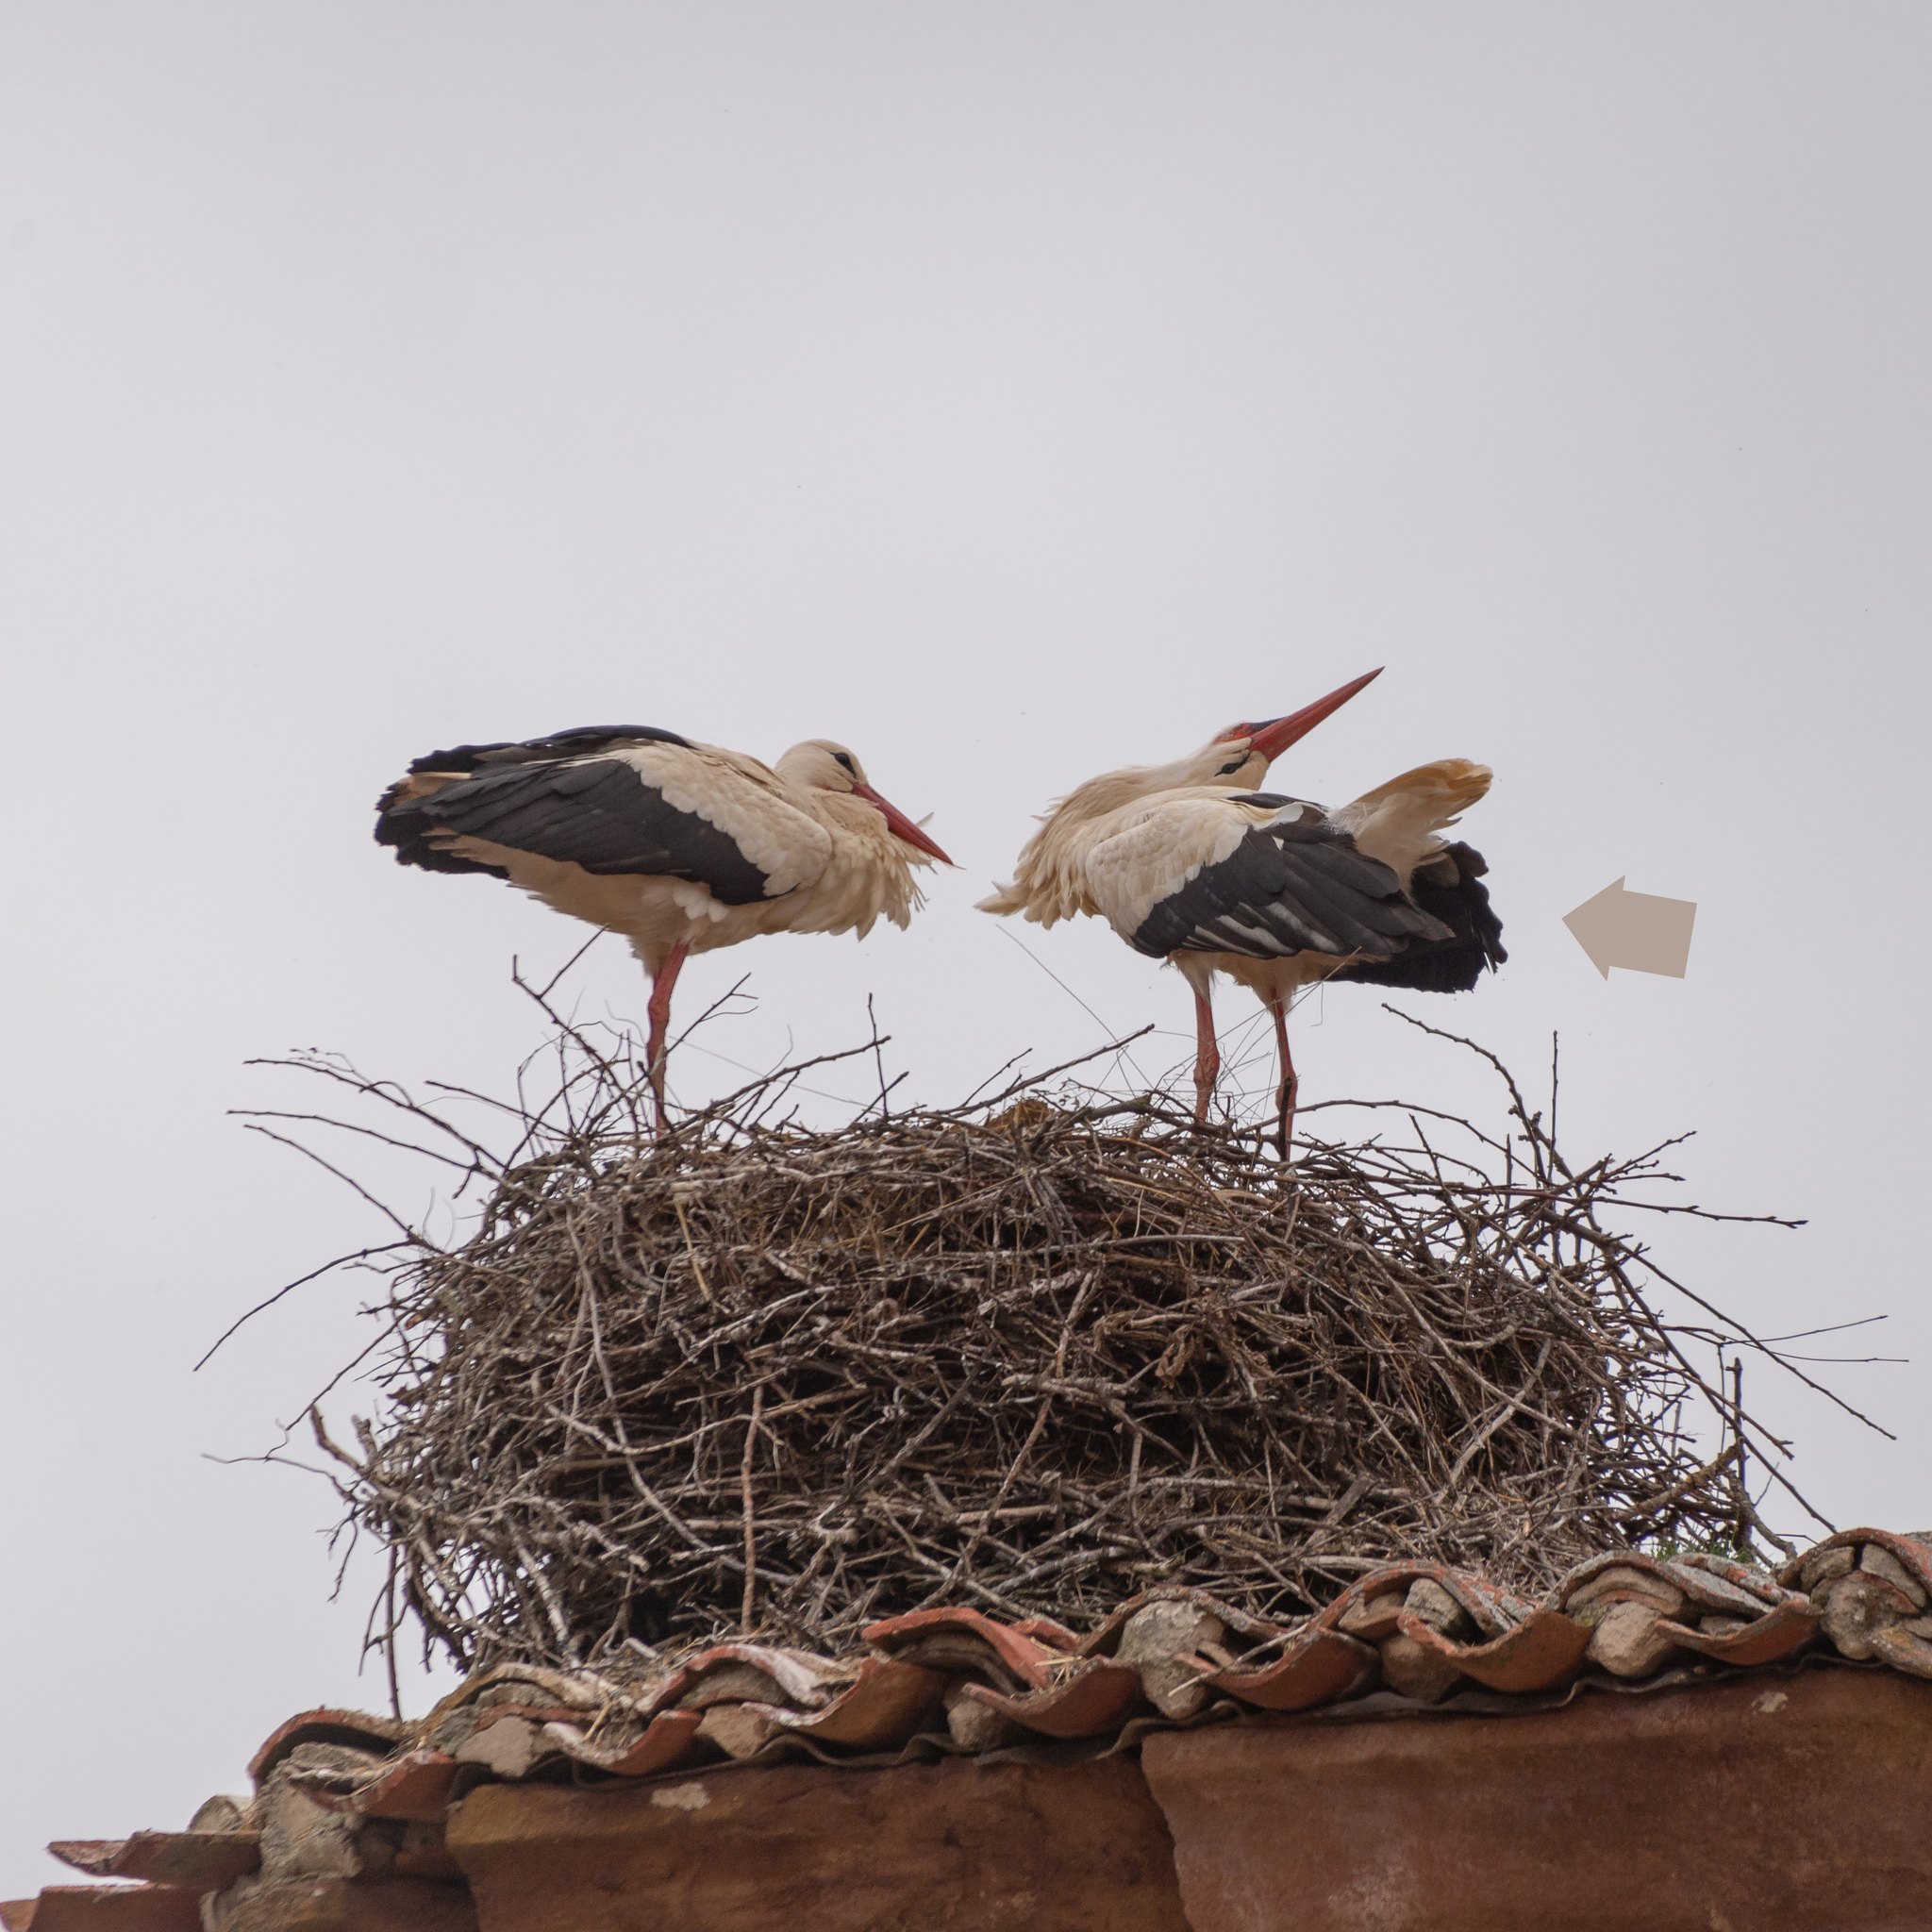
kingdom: Animalia
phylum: Chordata
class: Aves
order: Ciconiiformes
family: Ciconiidae
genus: Ciconia
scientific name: Ciconia ciconia
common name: White stork
